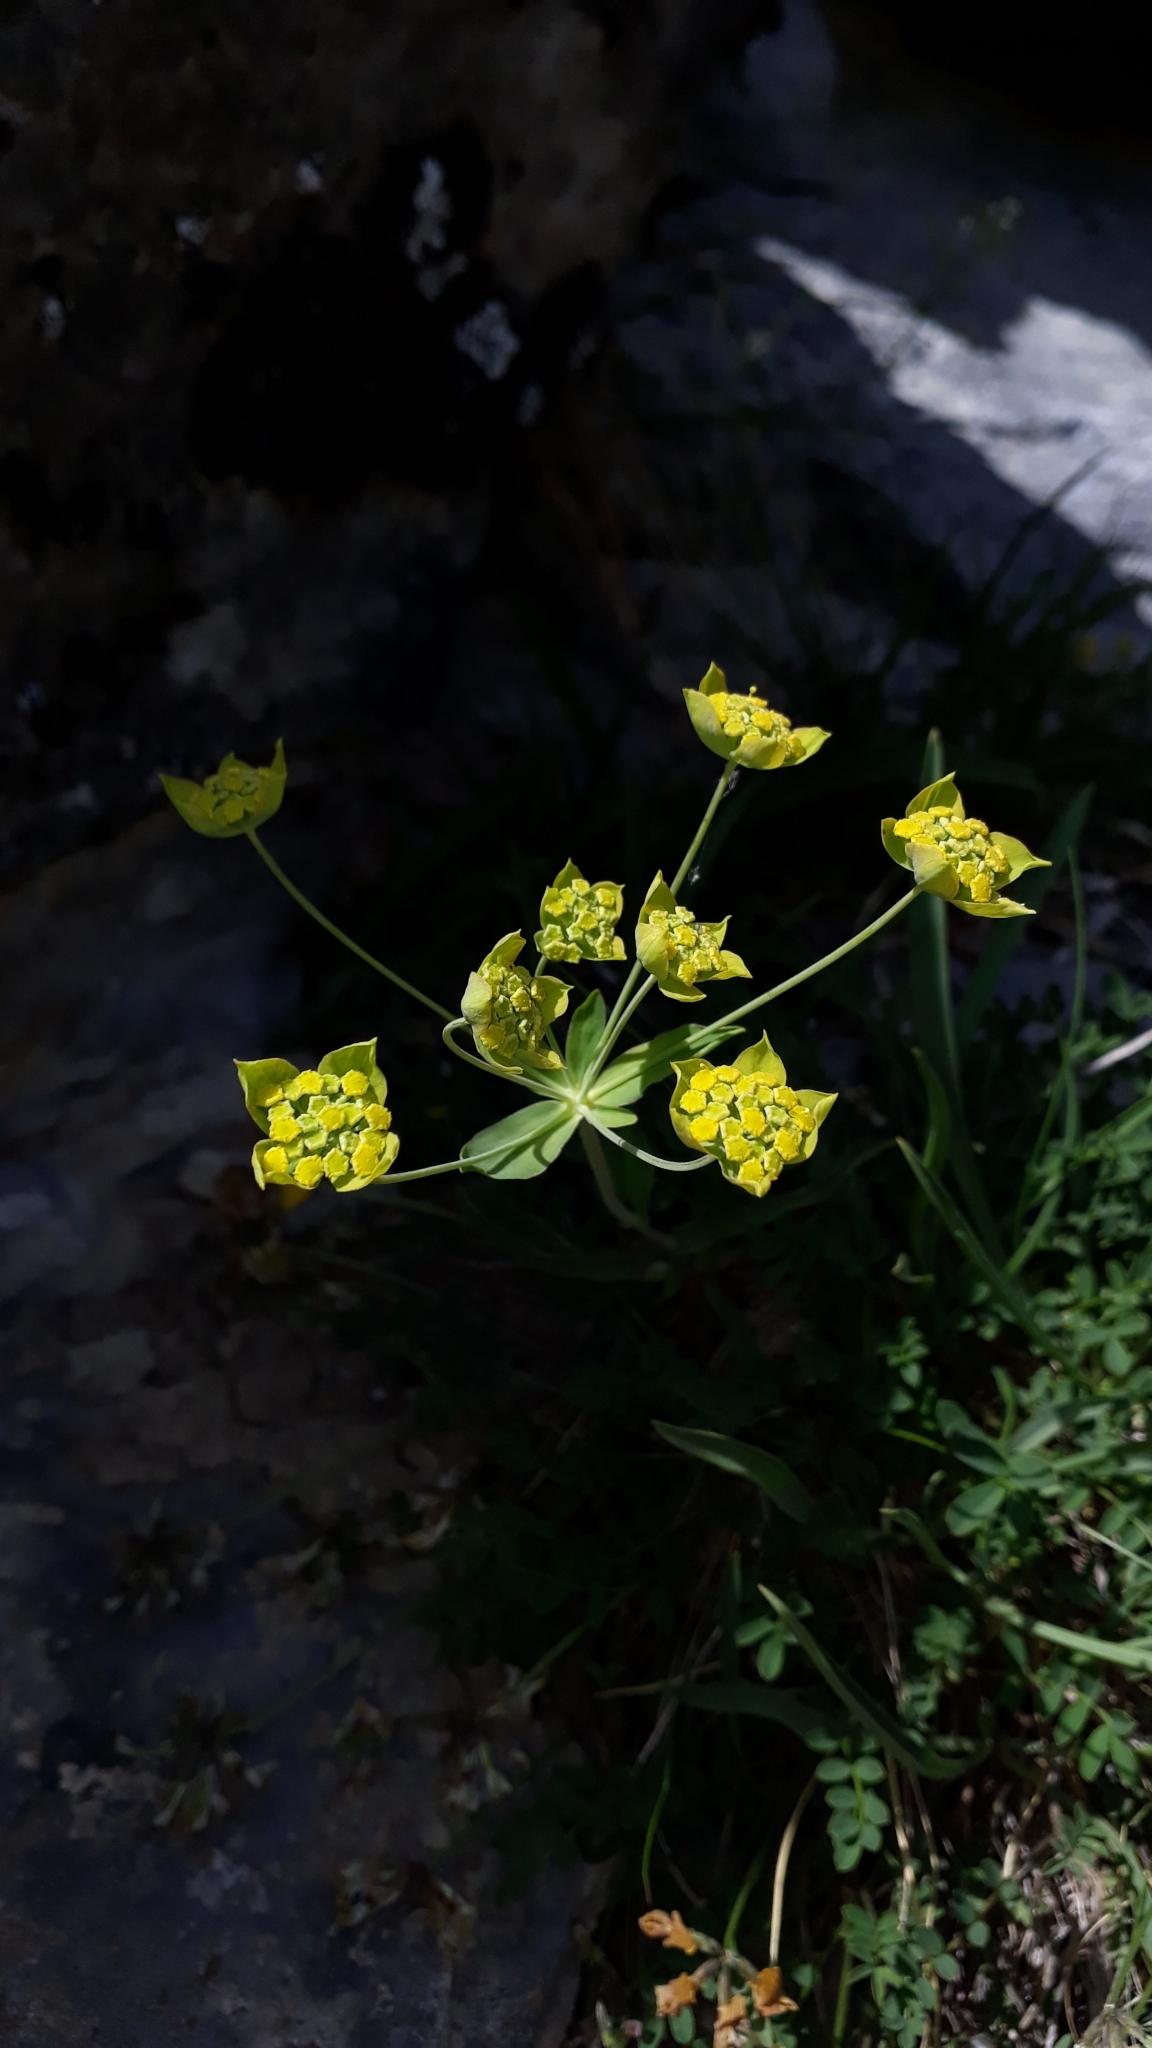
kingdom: Plantae
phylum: Tracheophyta
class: Magnoliopsida
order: Apiales
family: Apiaceae
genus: Bupleurum
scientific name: Bupleurum ranunculoides
